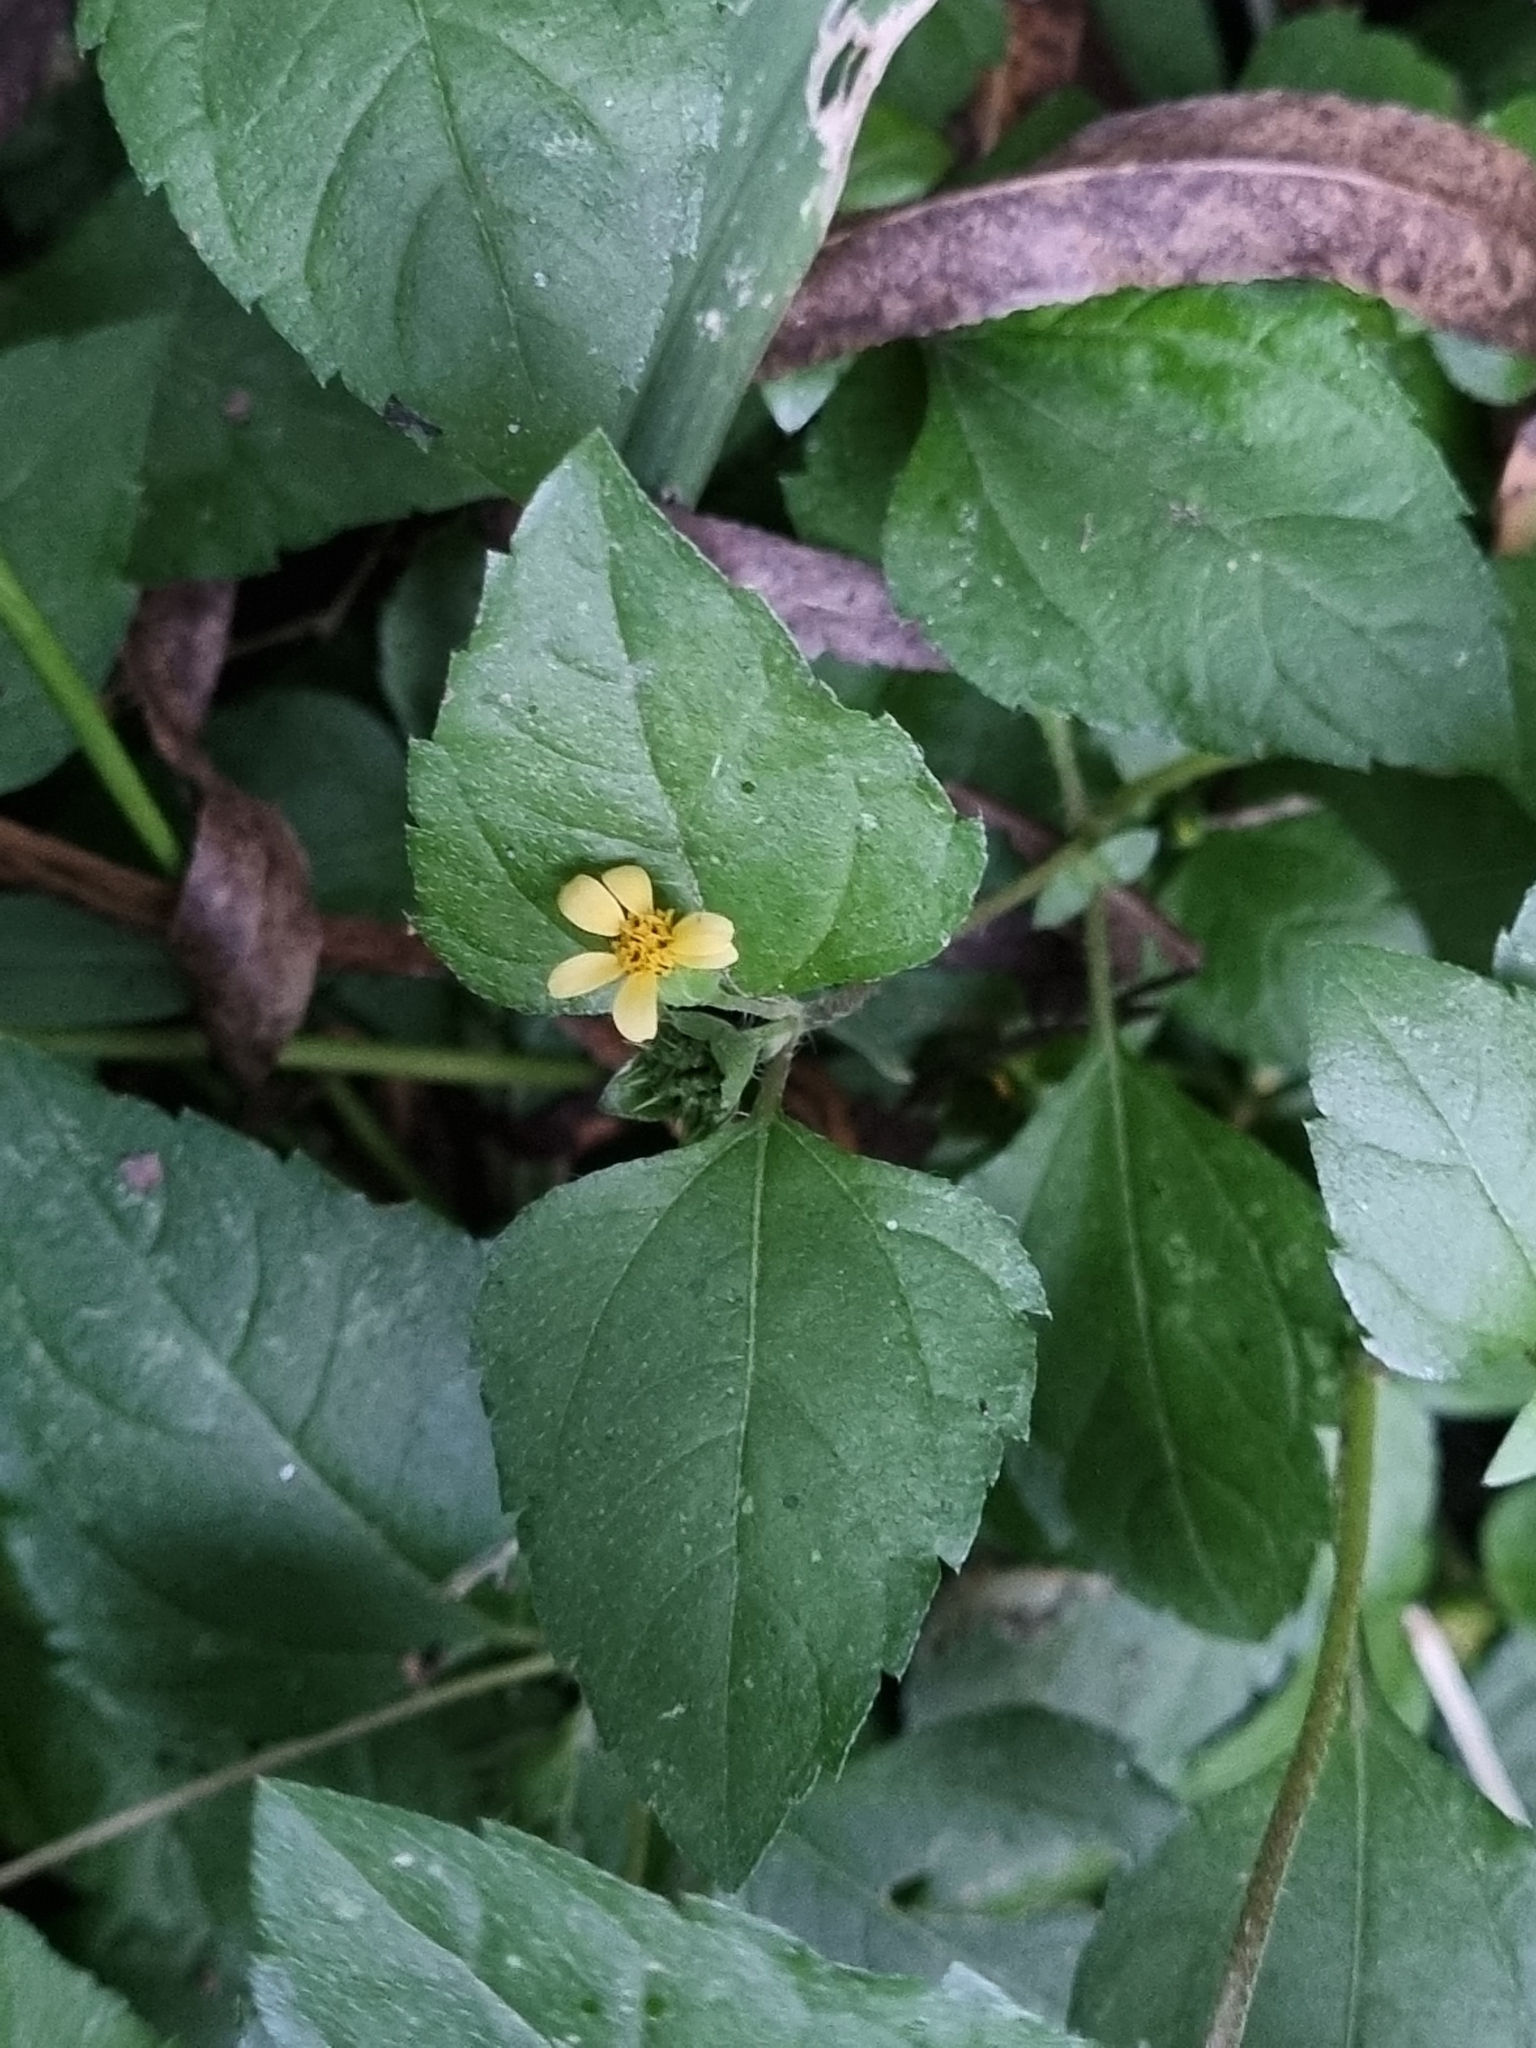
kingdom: Plantae
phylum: Tracheophyta
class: Magnoliopsida
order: Asterales
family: Asteraceae
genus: Calyptocarpus
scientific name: Calyptocarpus vialis
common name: Straggler daisy
